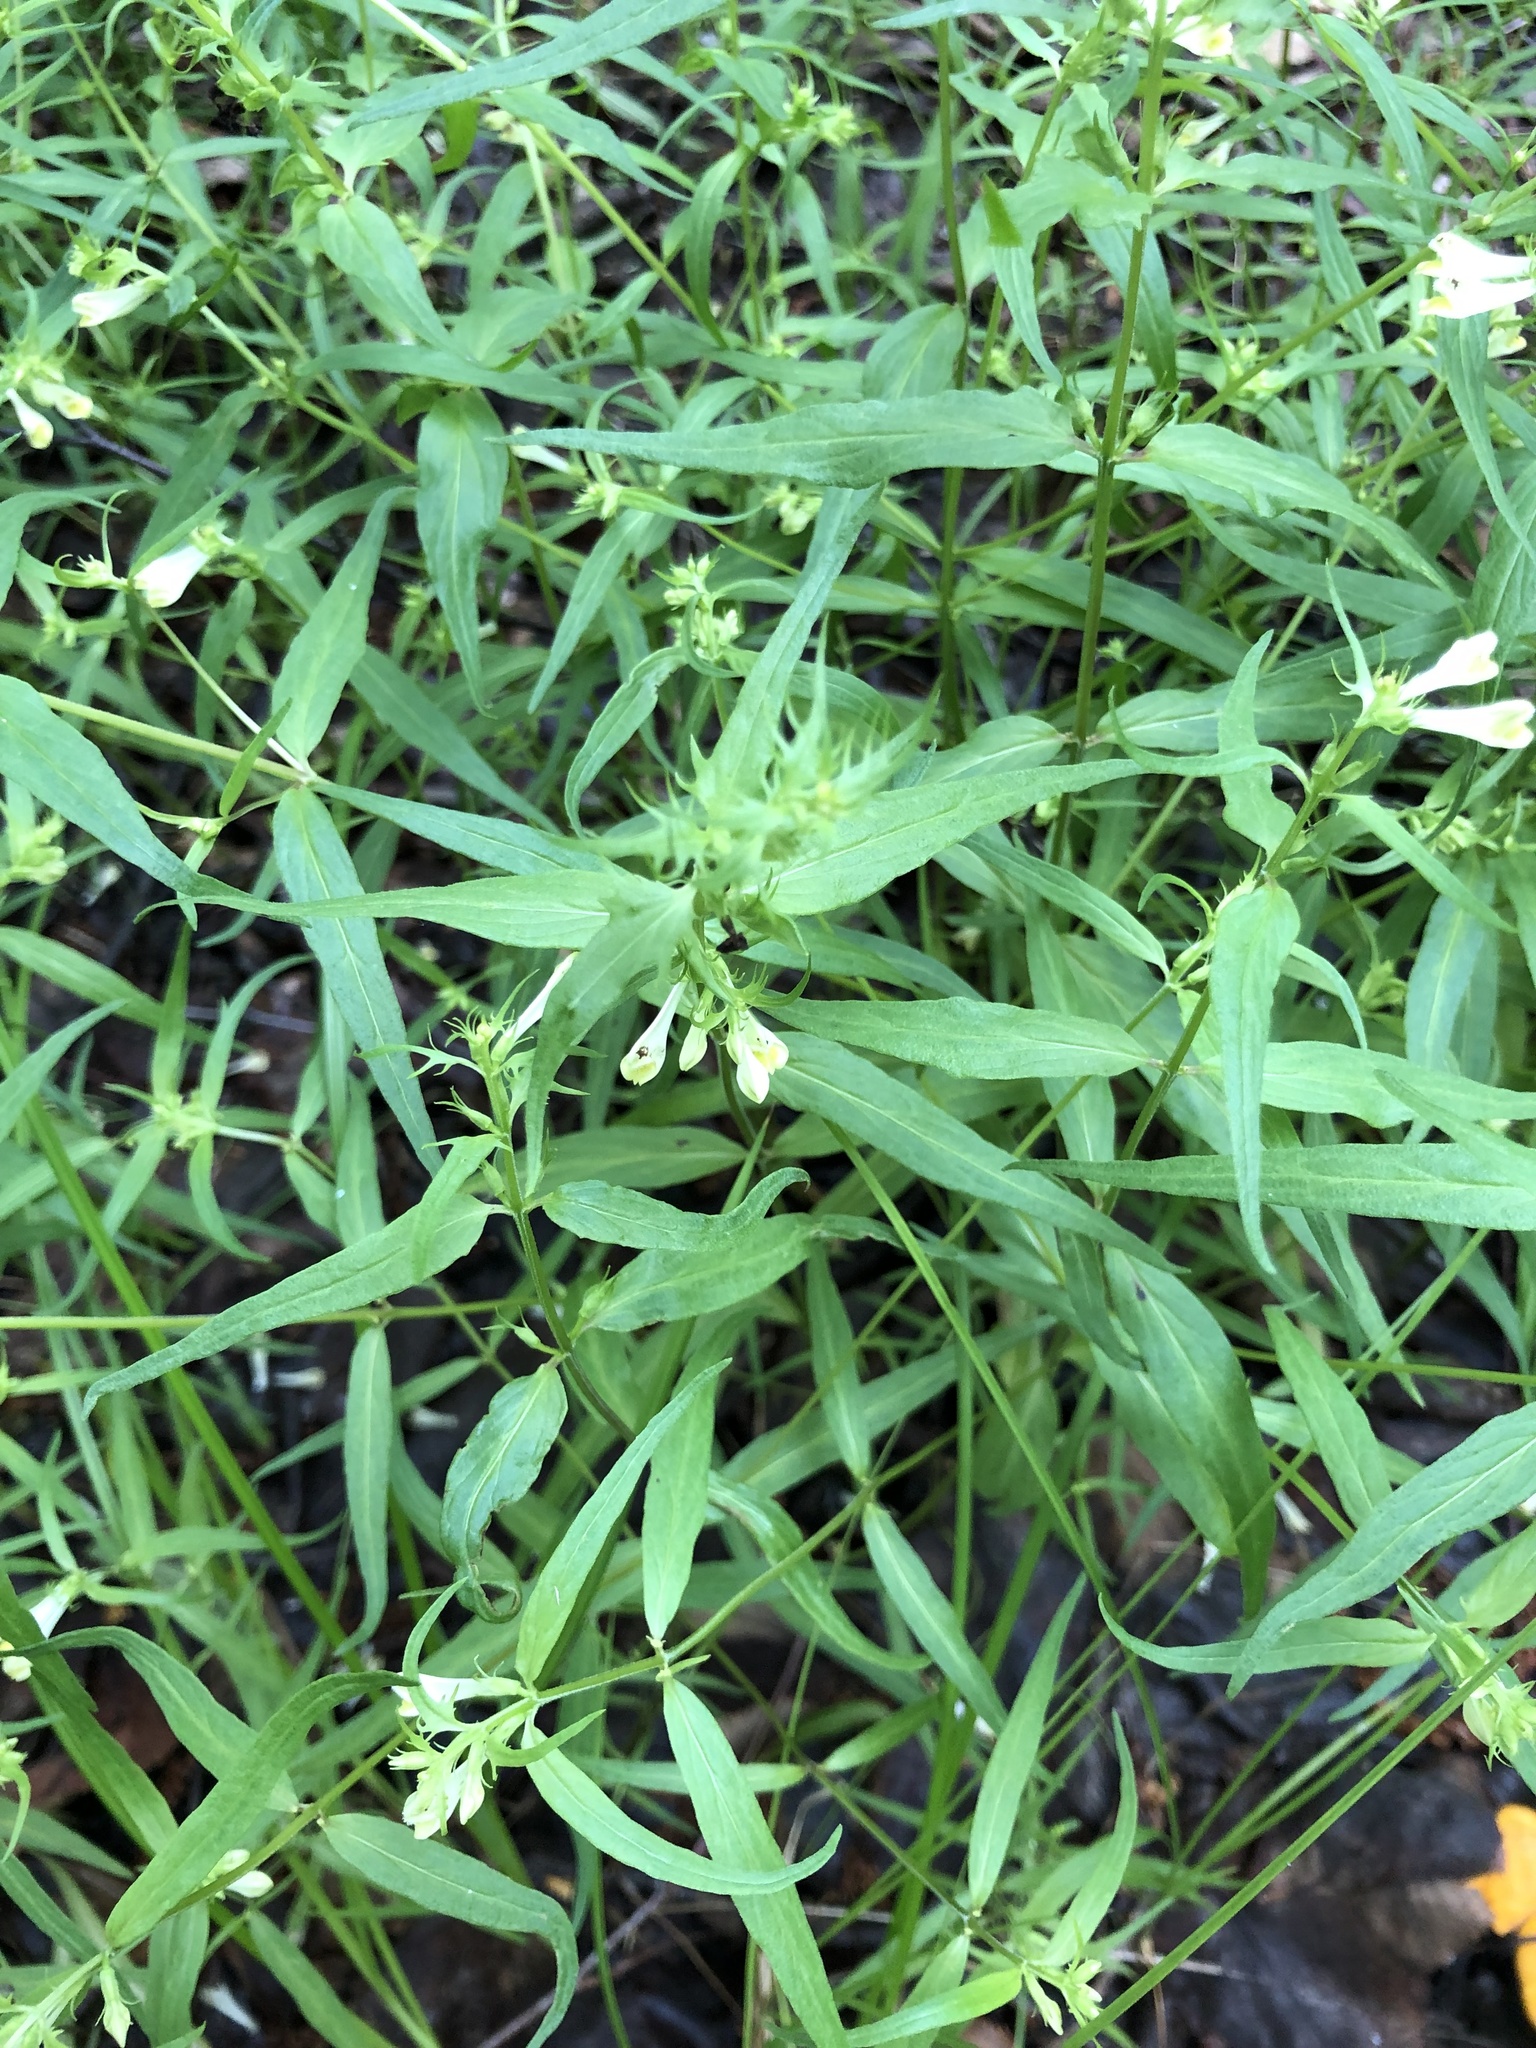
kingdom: Plantae
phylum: Tracheophyta
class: Magnoliopsida
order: Lamiales
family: Orobanchaceae
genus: Melampyrum
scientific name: Melampyrum pratense
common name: Common cow-wheat
